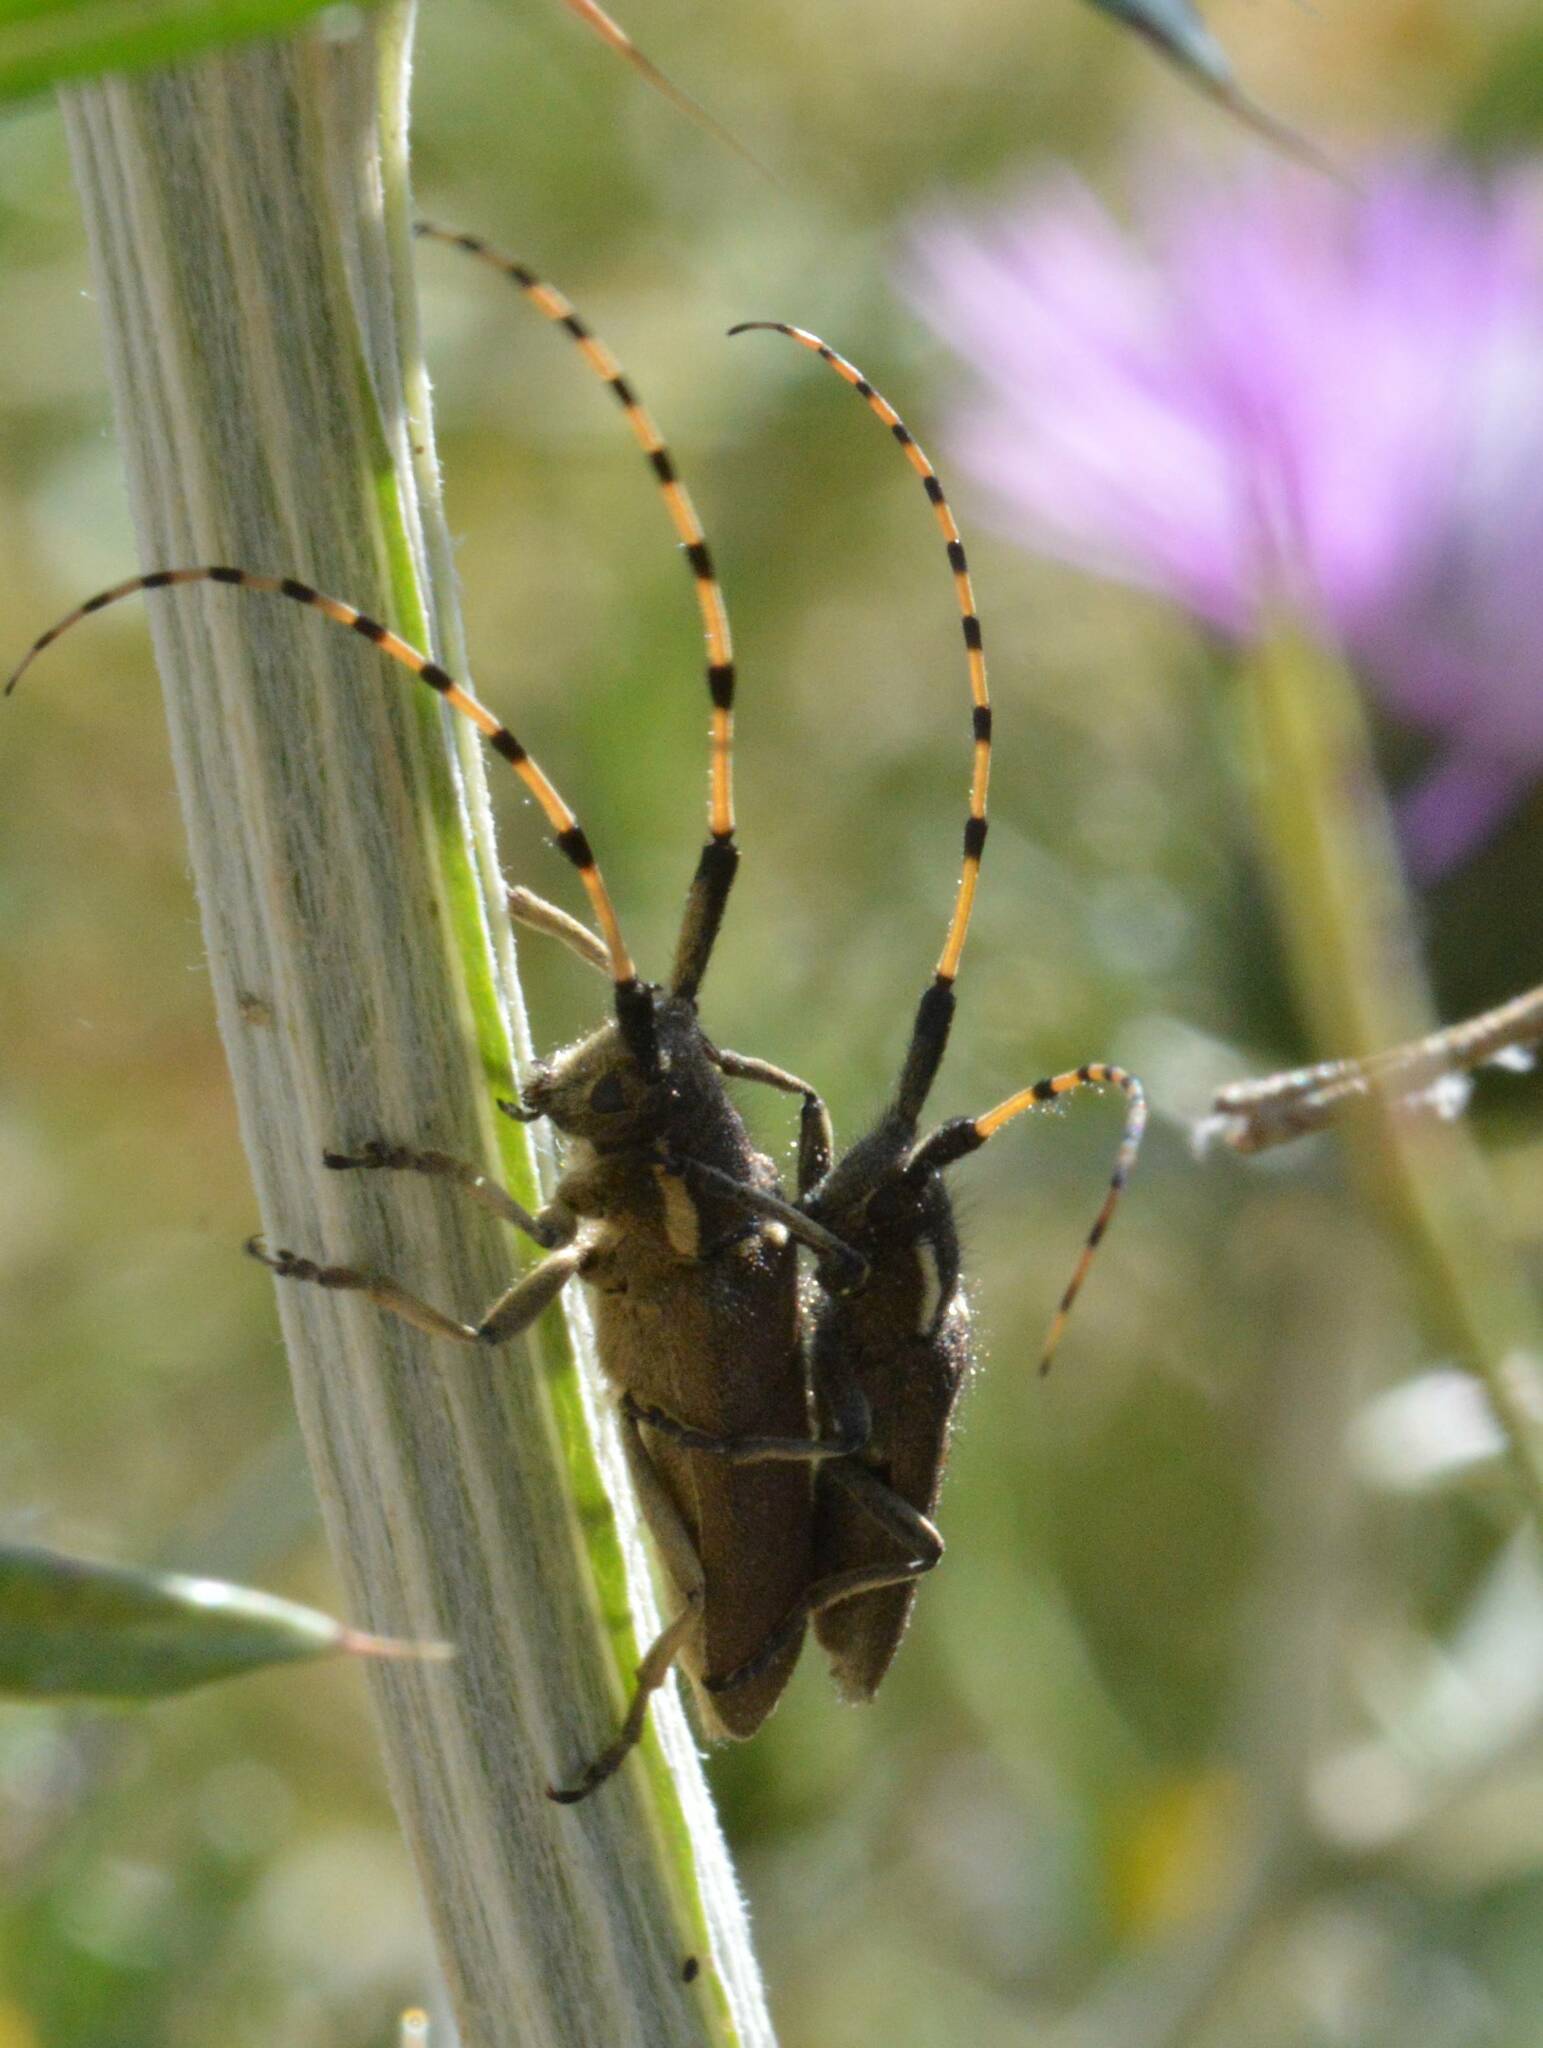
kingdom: Animalia
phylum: Arthropoda
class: Insecta
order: Coleoptera
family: Cerambycidae
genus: Agapanthia
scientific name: Agapanthia annularis
